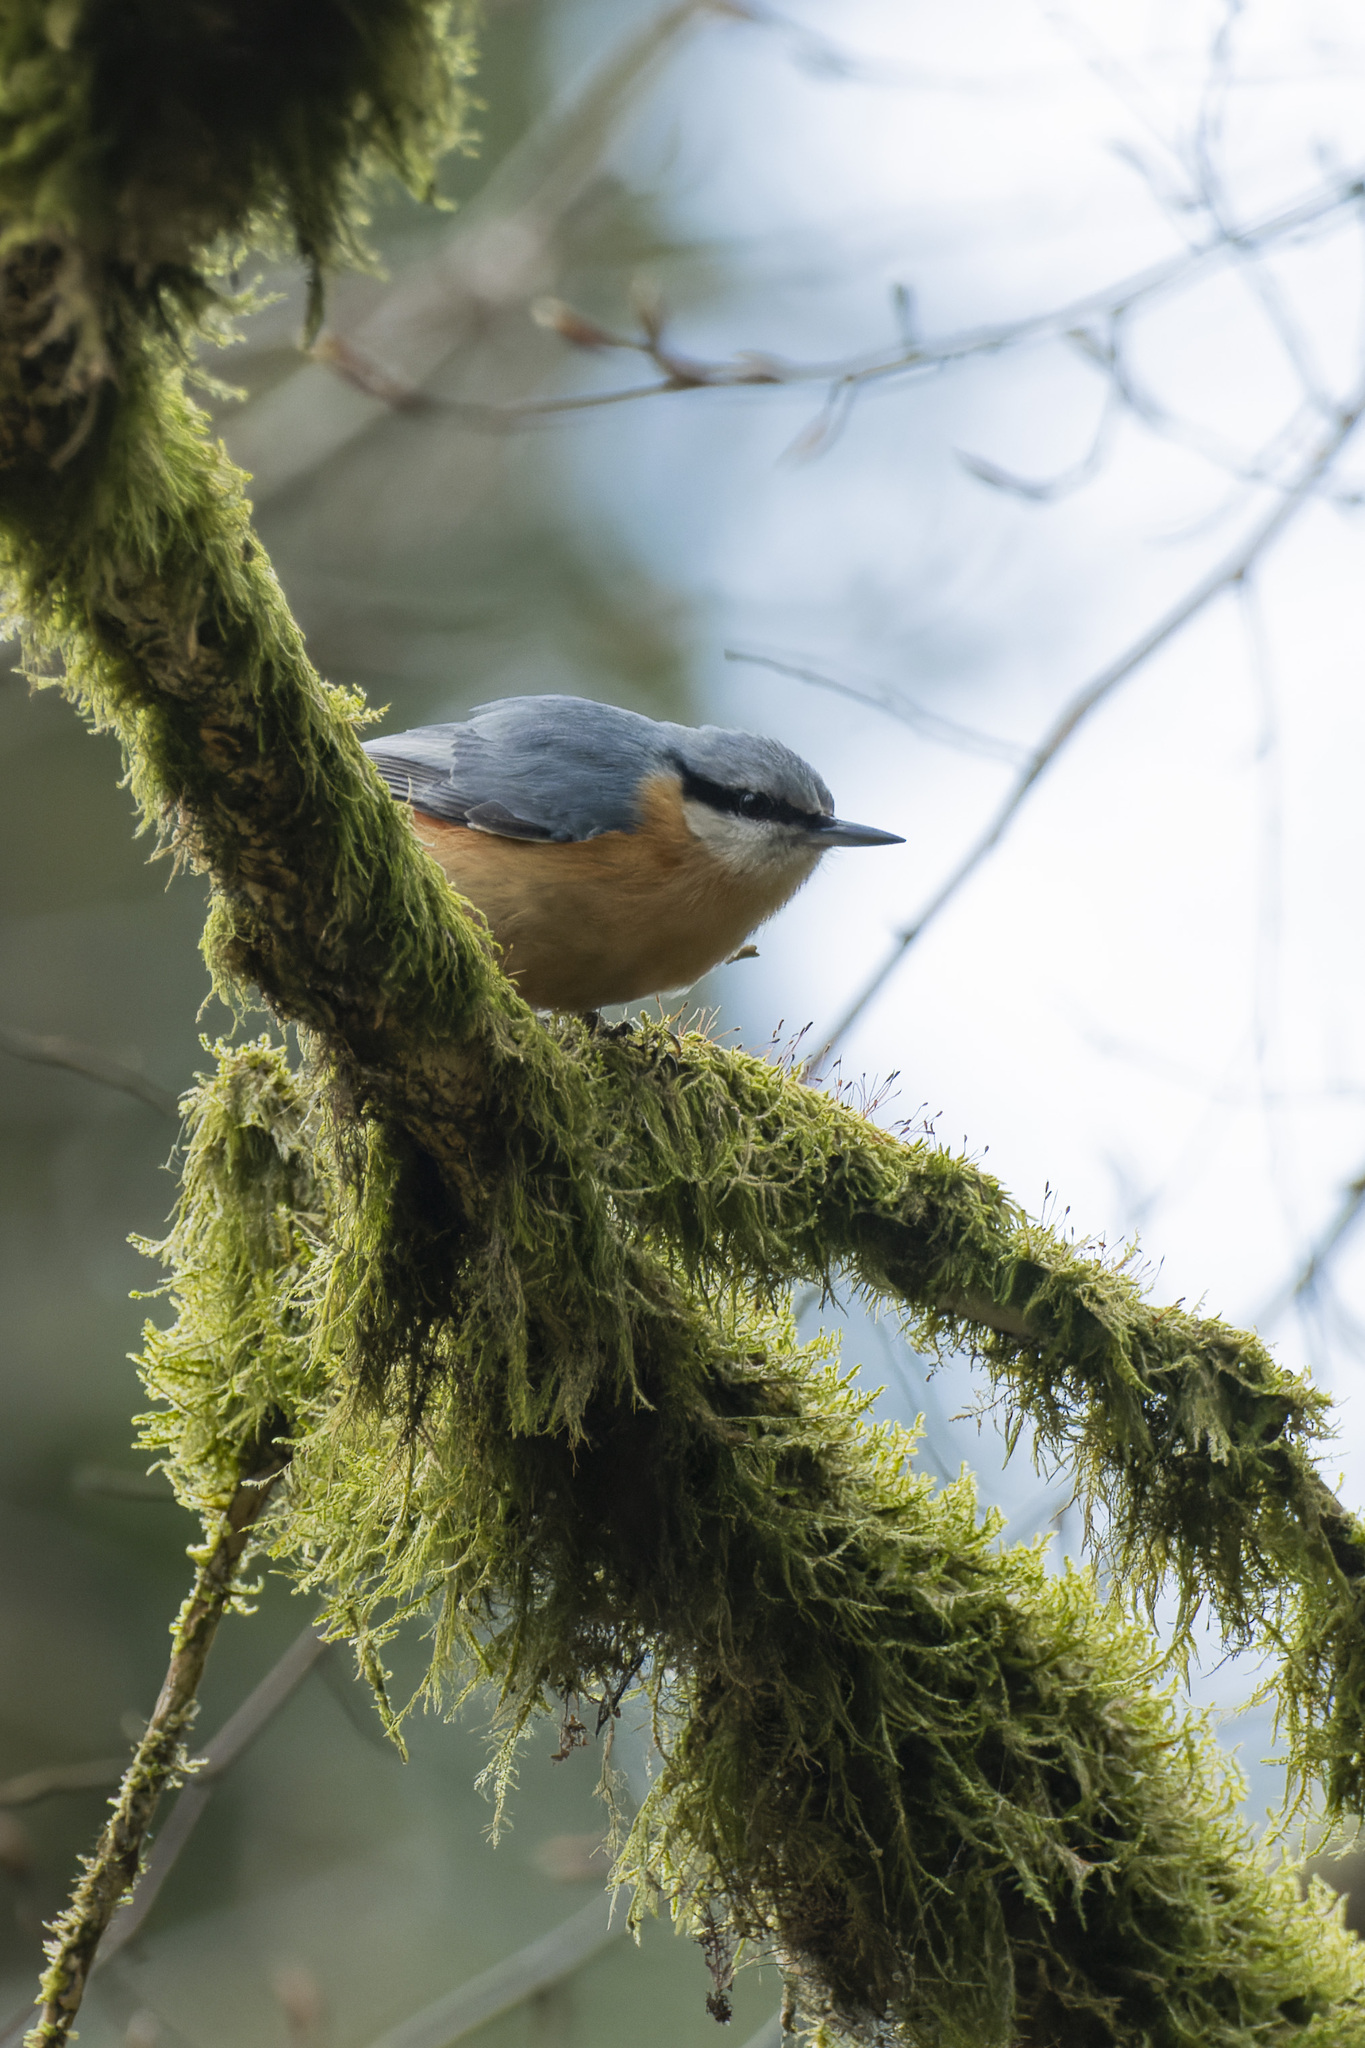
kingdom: Animalia
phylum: Chordata
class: Aves
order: Passeriformes
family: Sittidae
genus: Sitta
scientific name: Sitta europaea
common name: Eurasian nuthatch
